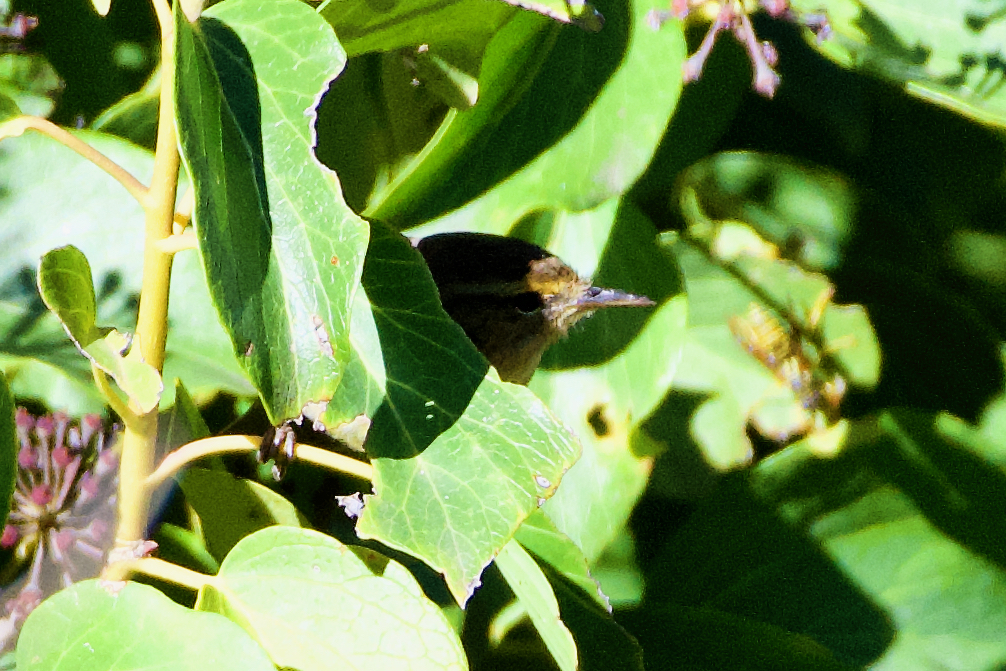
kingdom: Animalia
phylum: Chordata
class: Aves
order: Passeriformes
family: Phylloscopidae
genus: Phylloscopus
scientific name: Phylloscopus canariensis
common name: Canary islands chiffchaff
